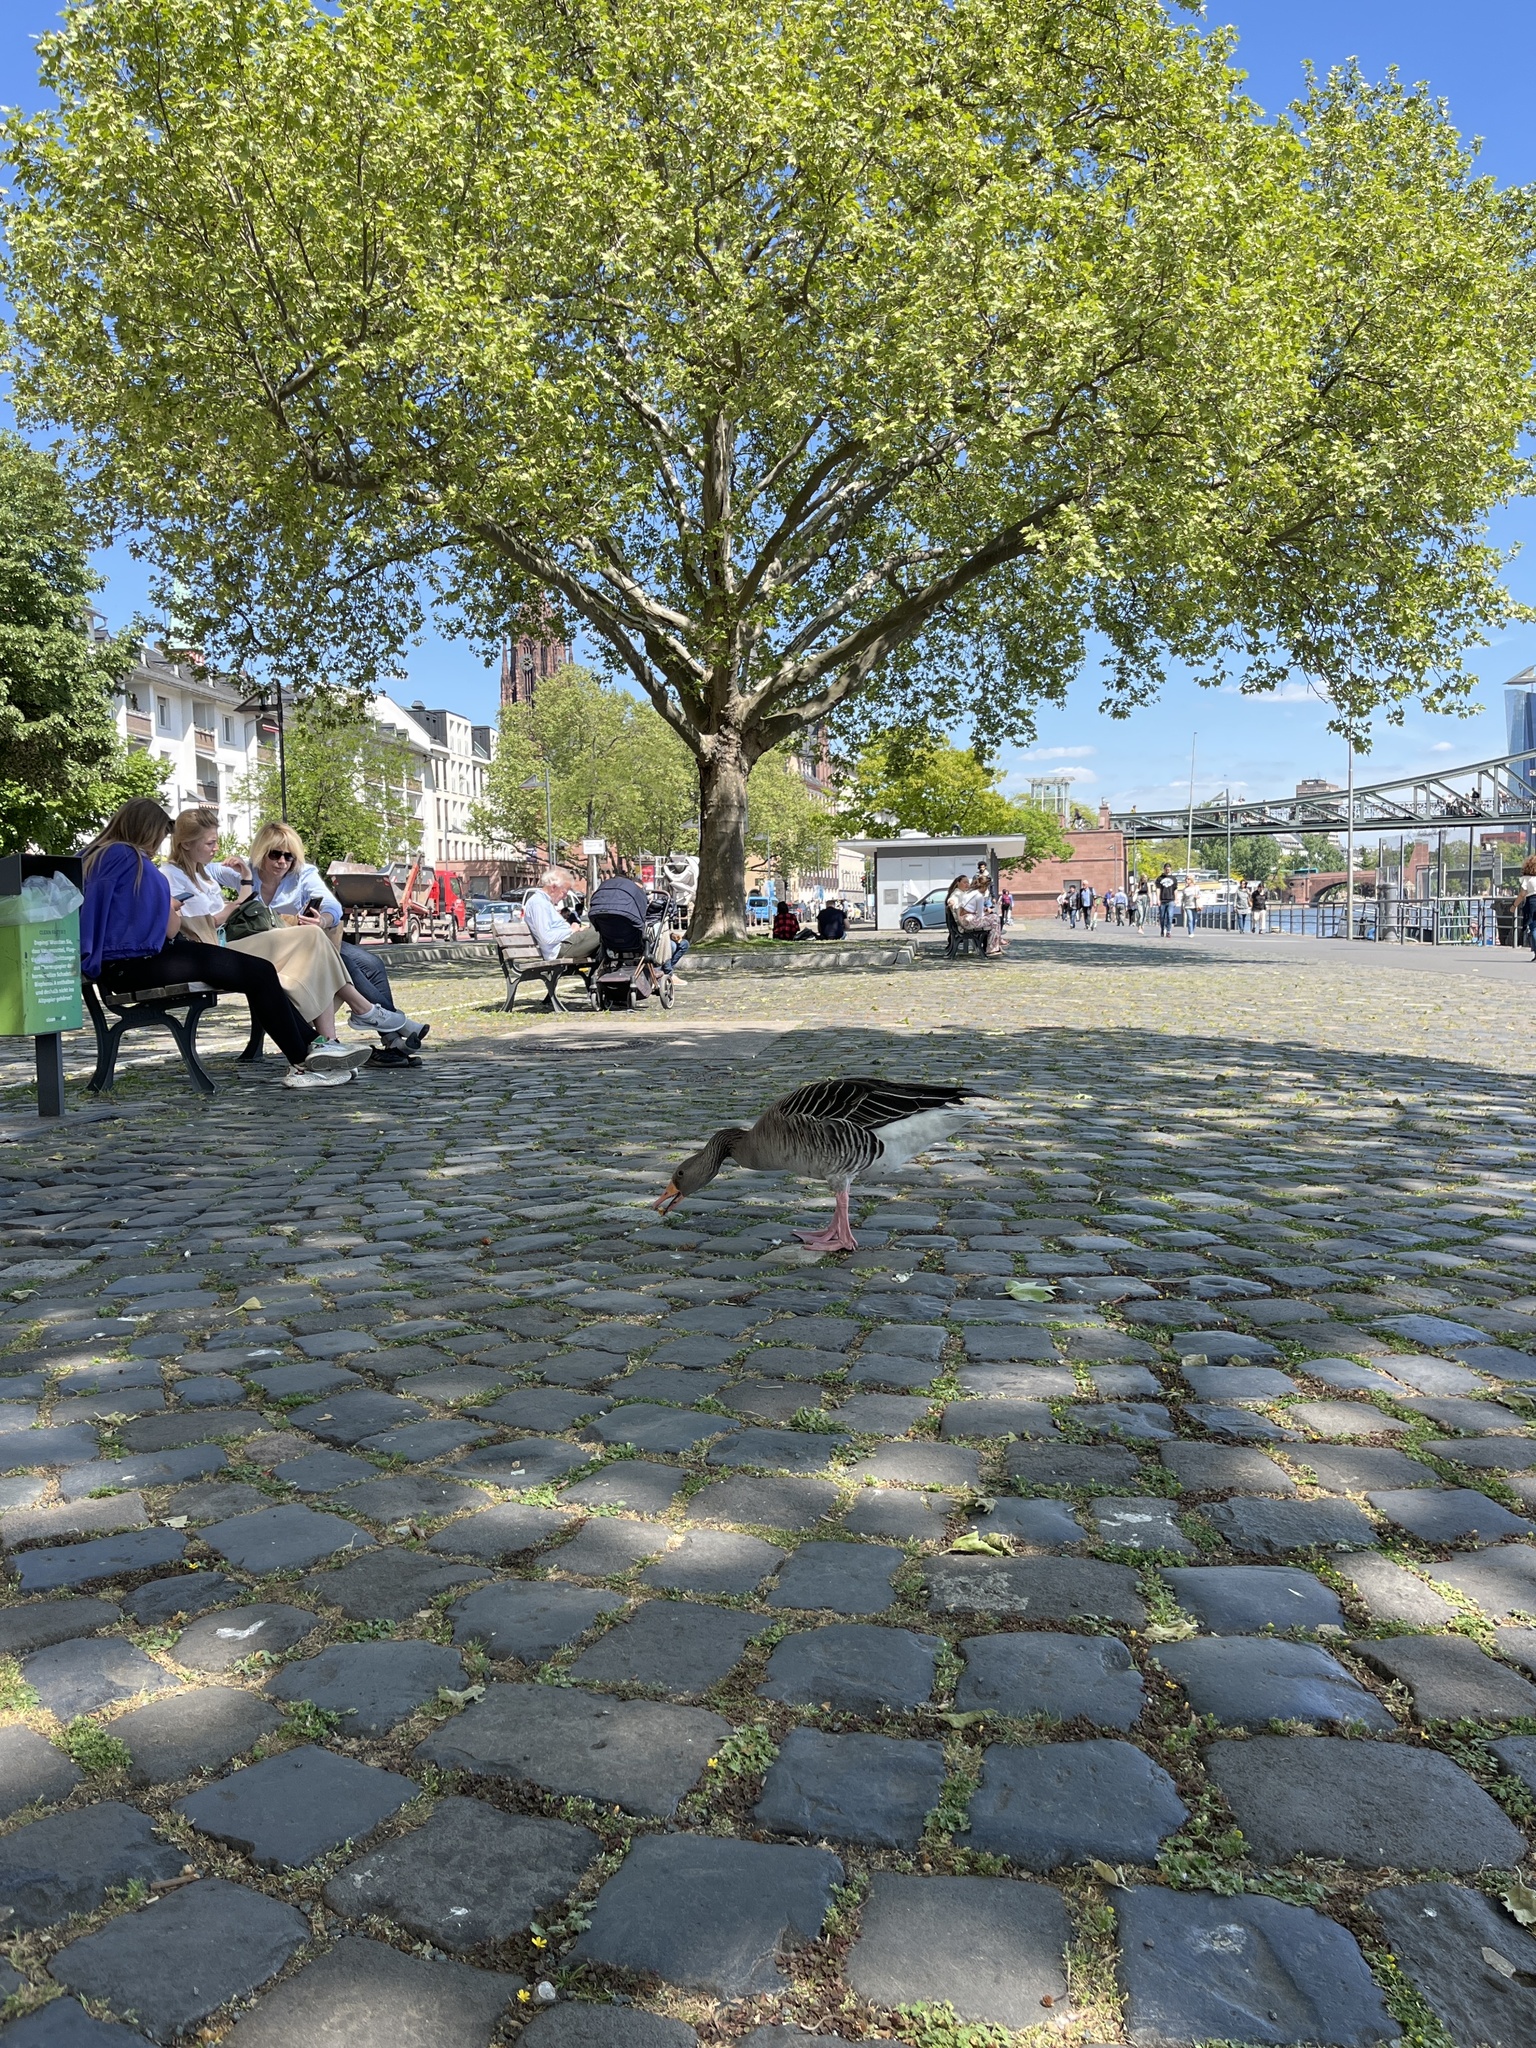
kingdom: Animalia
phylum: Chordata
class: Aves
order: Anseriformes
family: Anatidae
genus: Anser
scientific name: Anser anser
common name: Greylag goose
